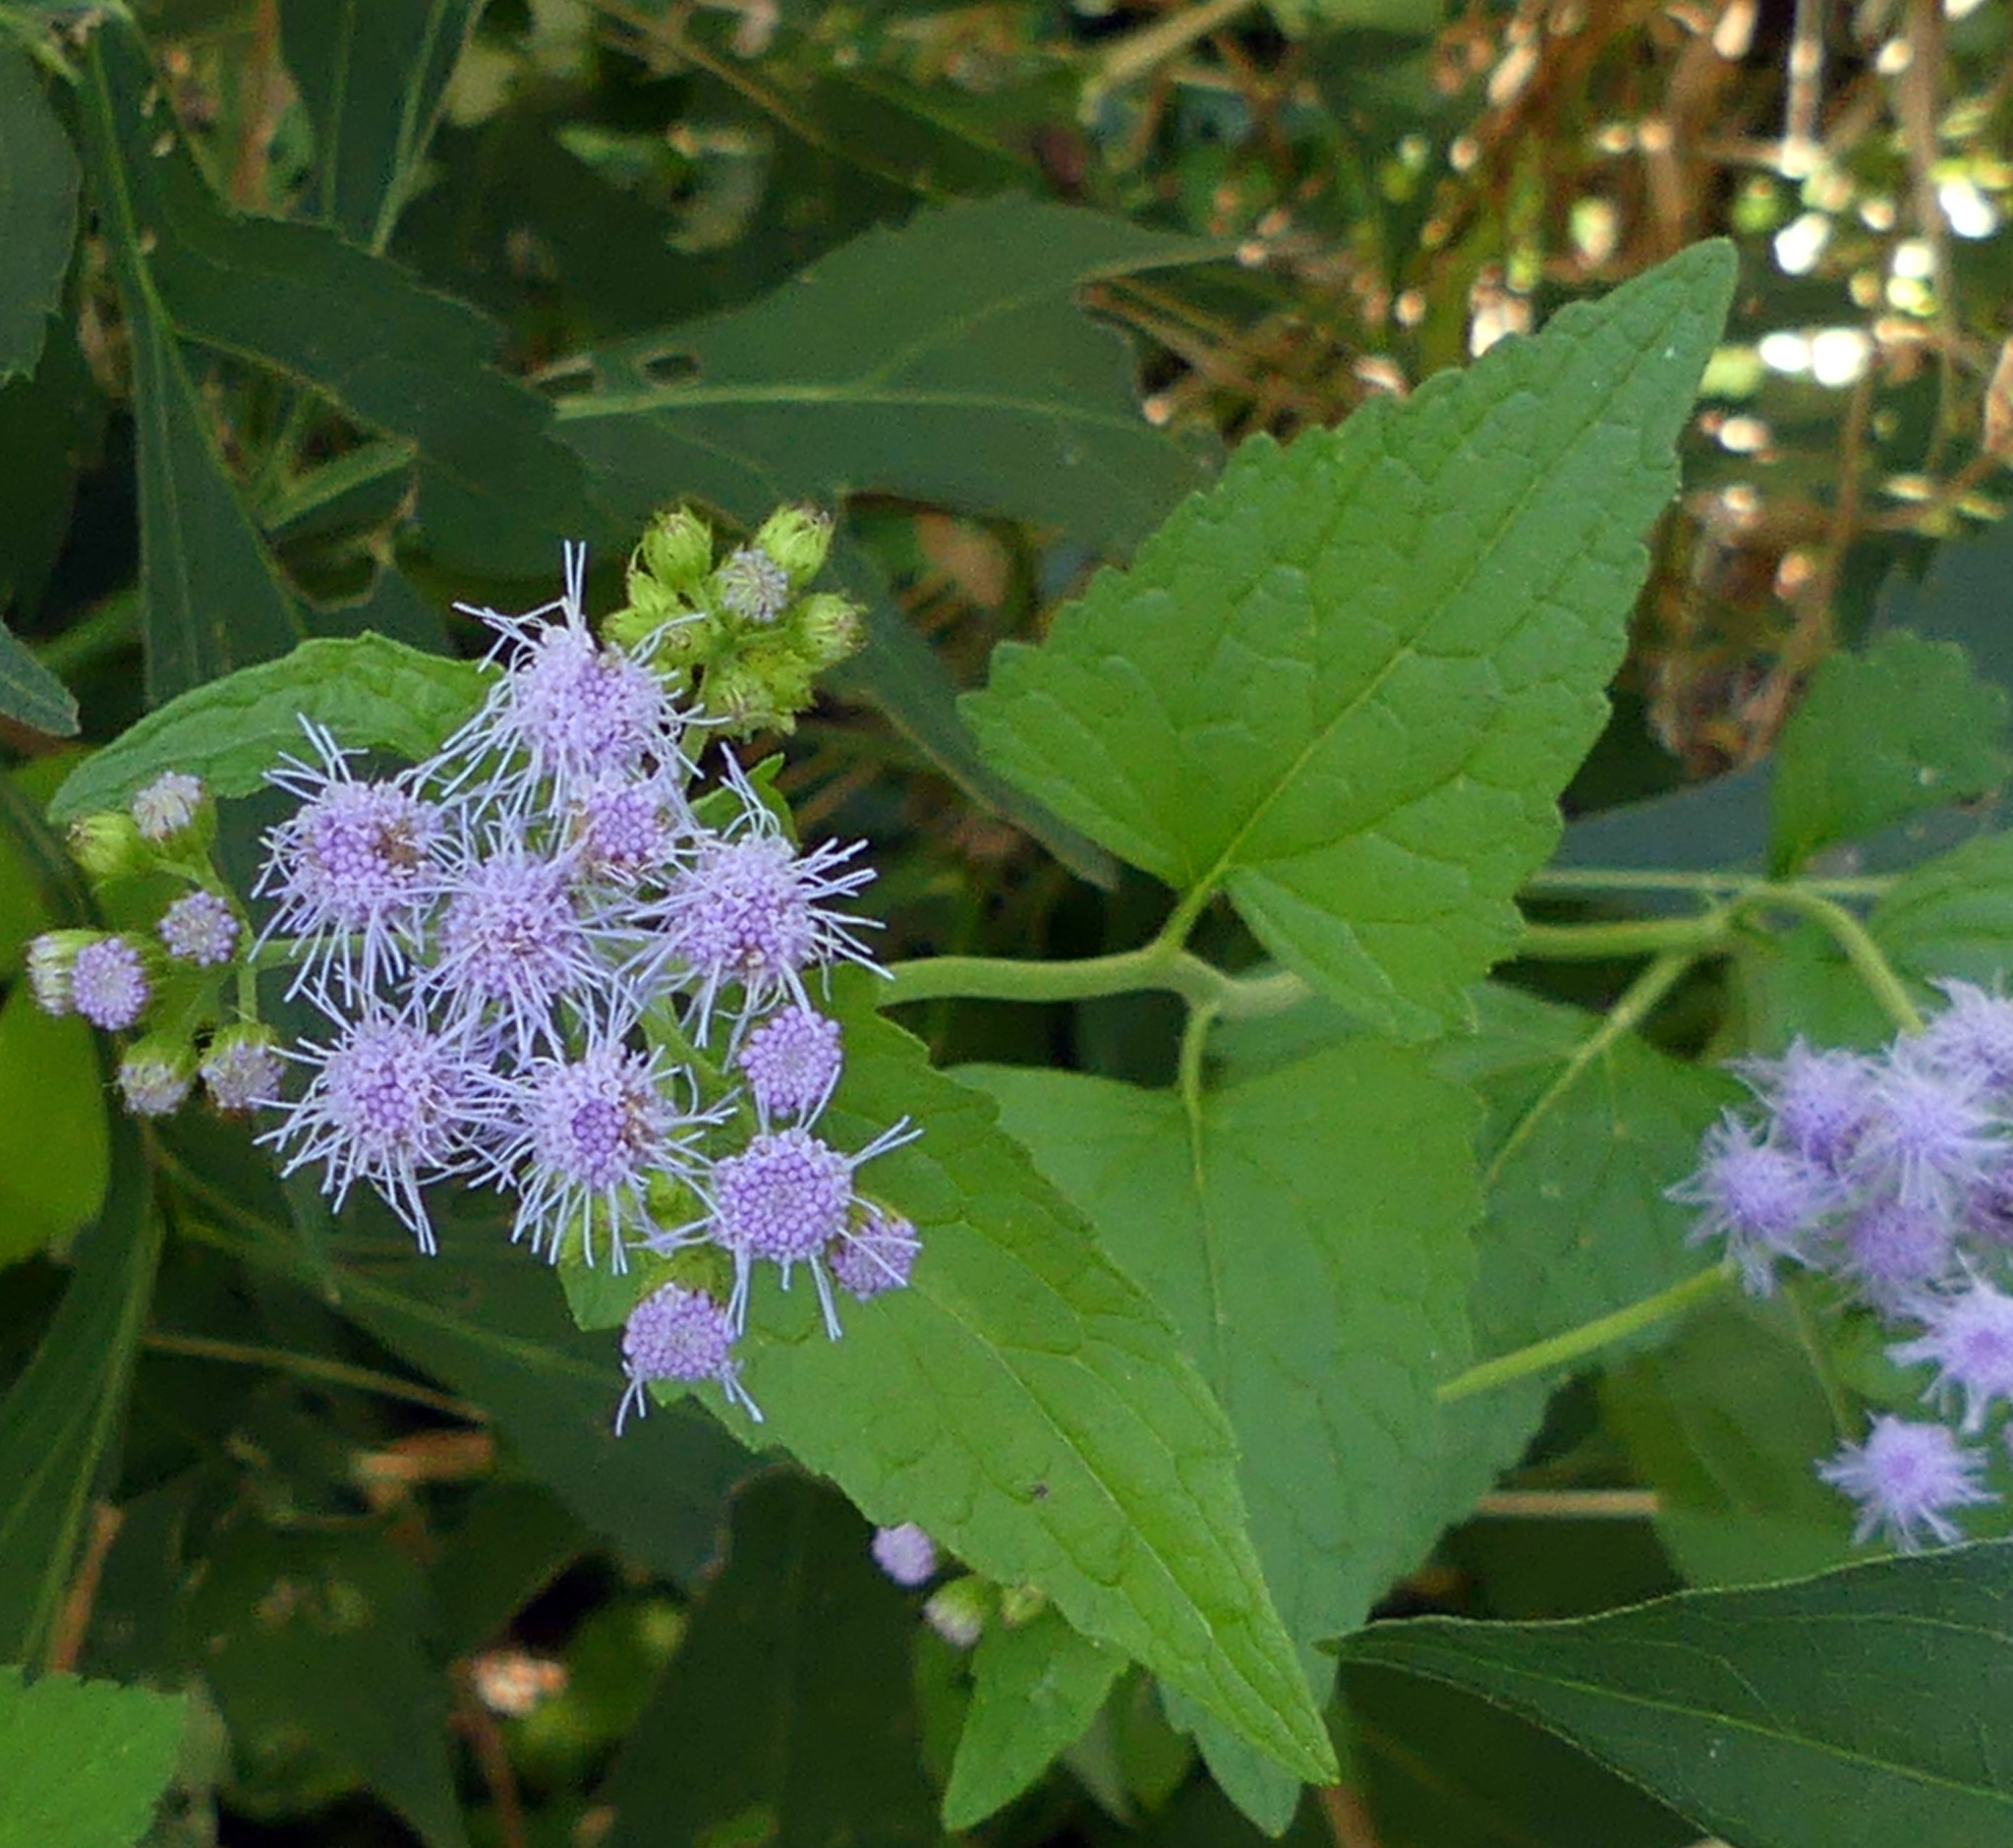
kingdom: Plantae
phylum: Tracheophyta
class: Magnoliopsida
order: Asterales
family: Asteraceae
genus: Conoclinium
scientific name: Conoclinium coelestinum
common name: Blue mistflower
